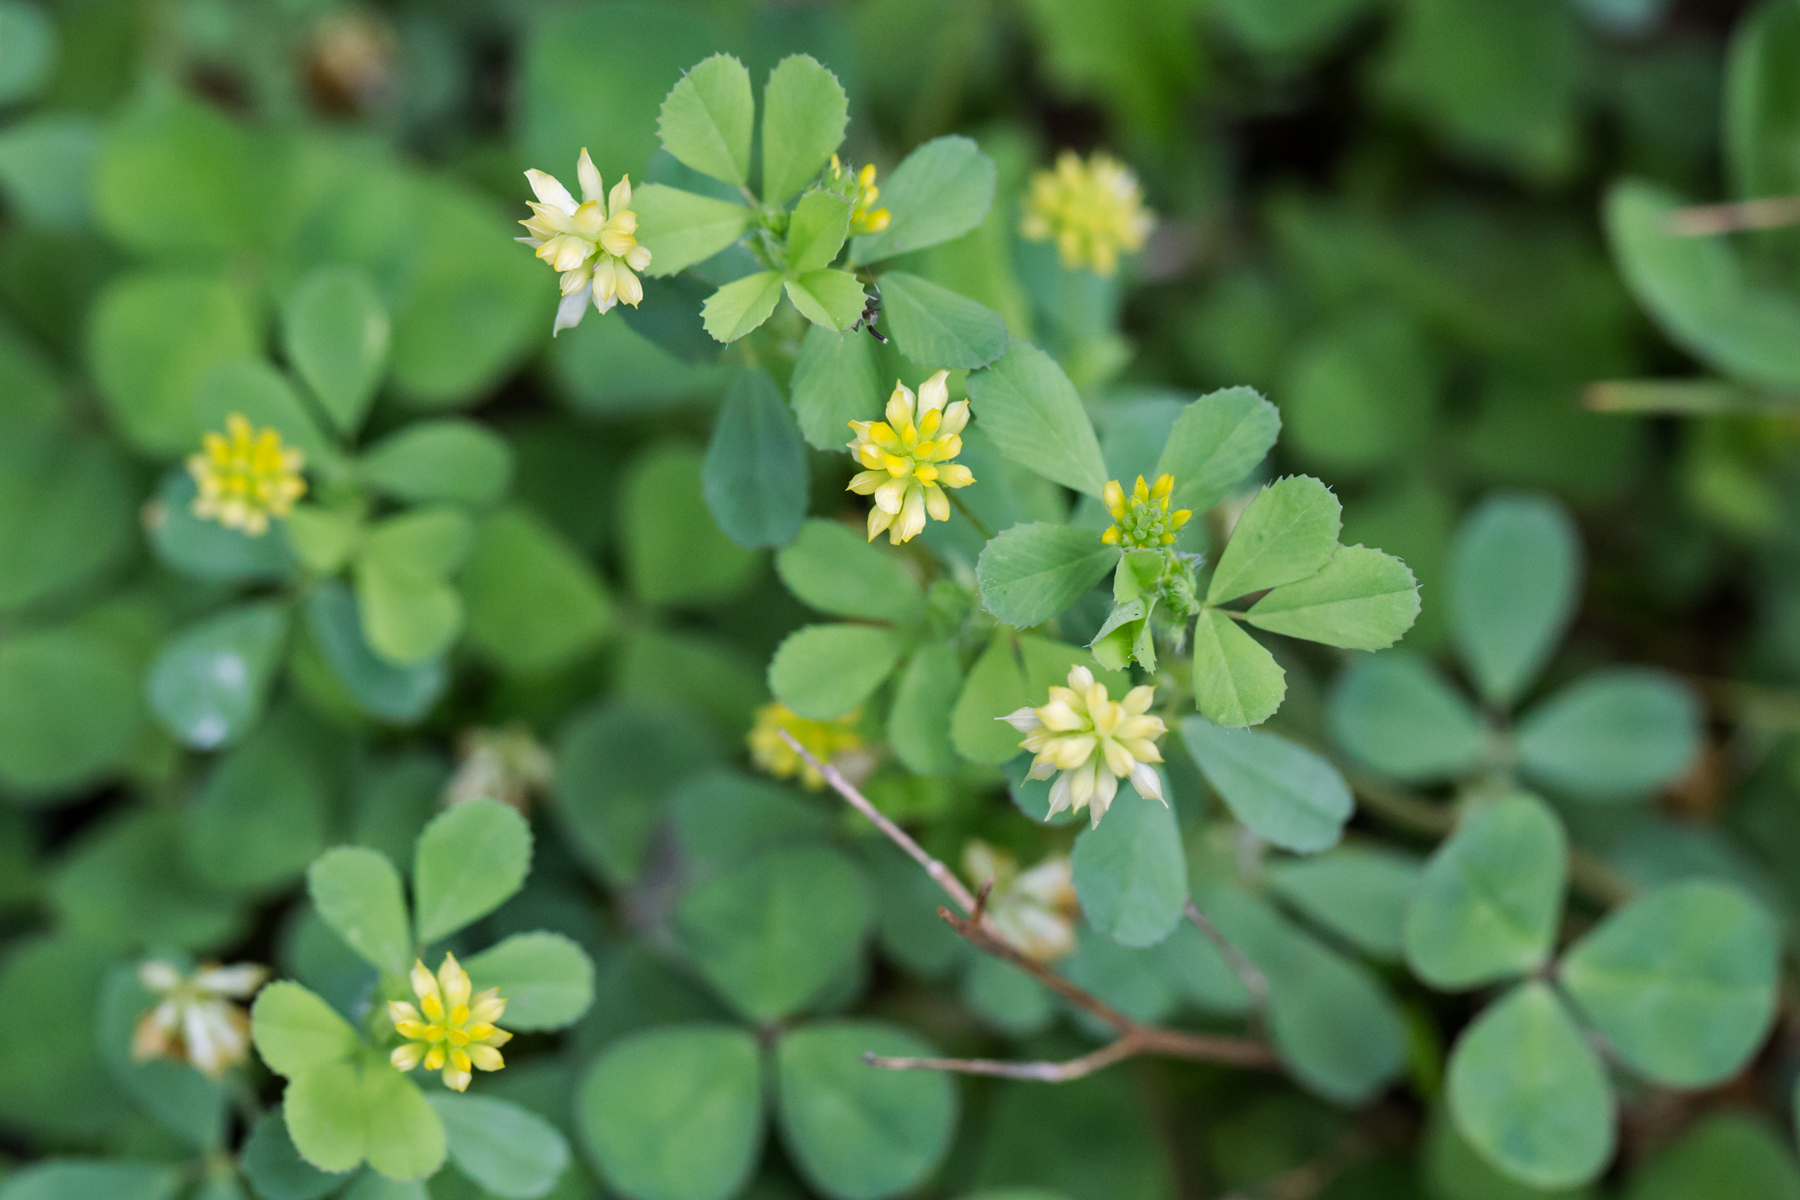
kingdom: Plantae
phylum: Tracheophyta
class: Magnoliopsida
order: Fabales
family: Fabaceae
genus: Trifolium
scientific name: Trifolium dubium
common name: Suckling clover
